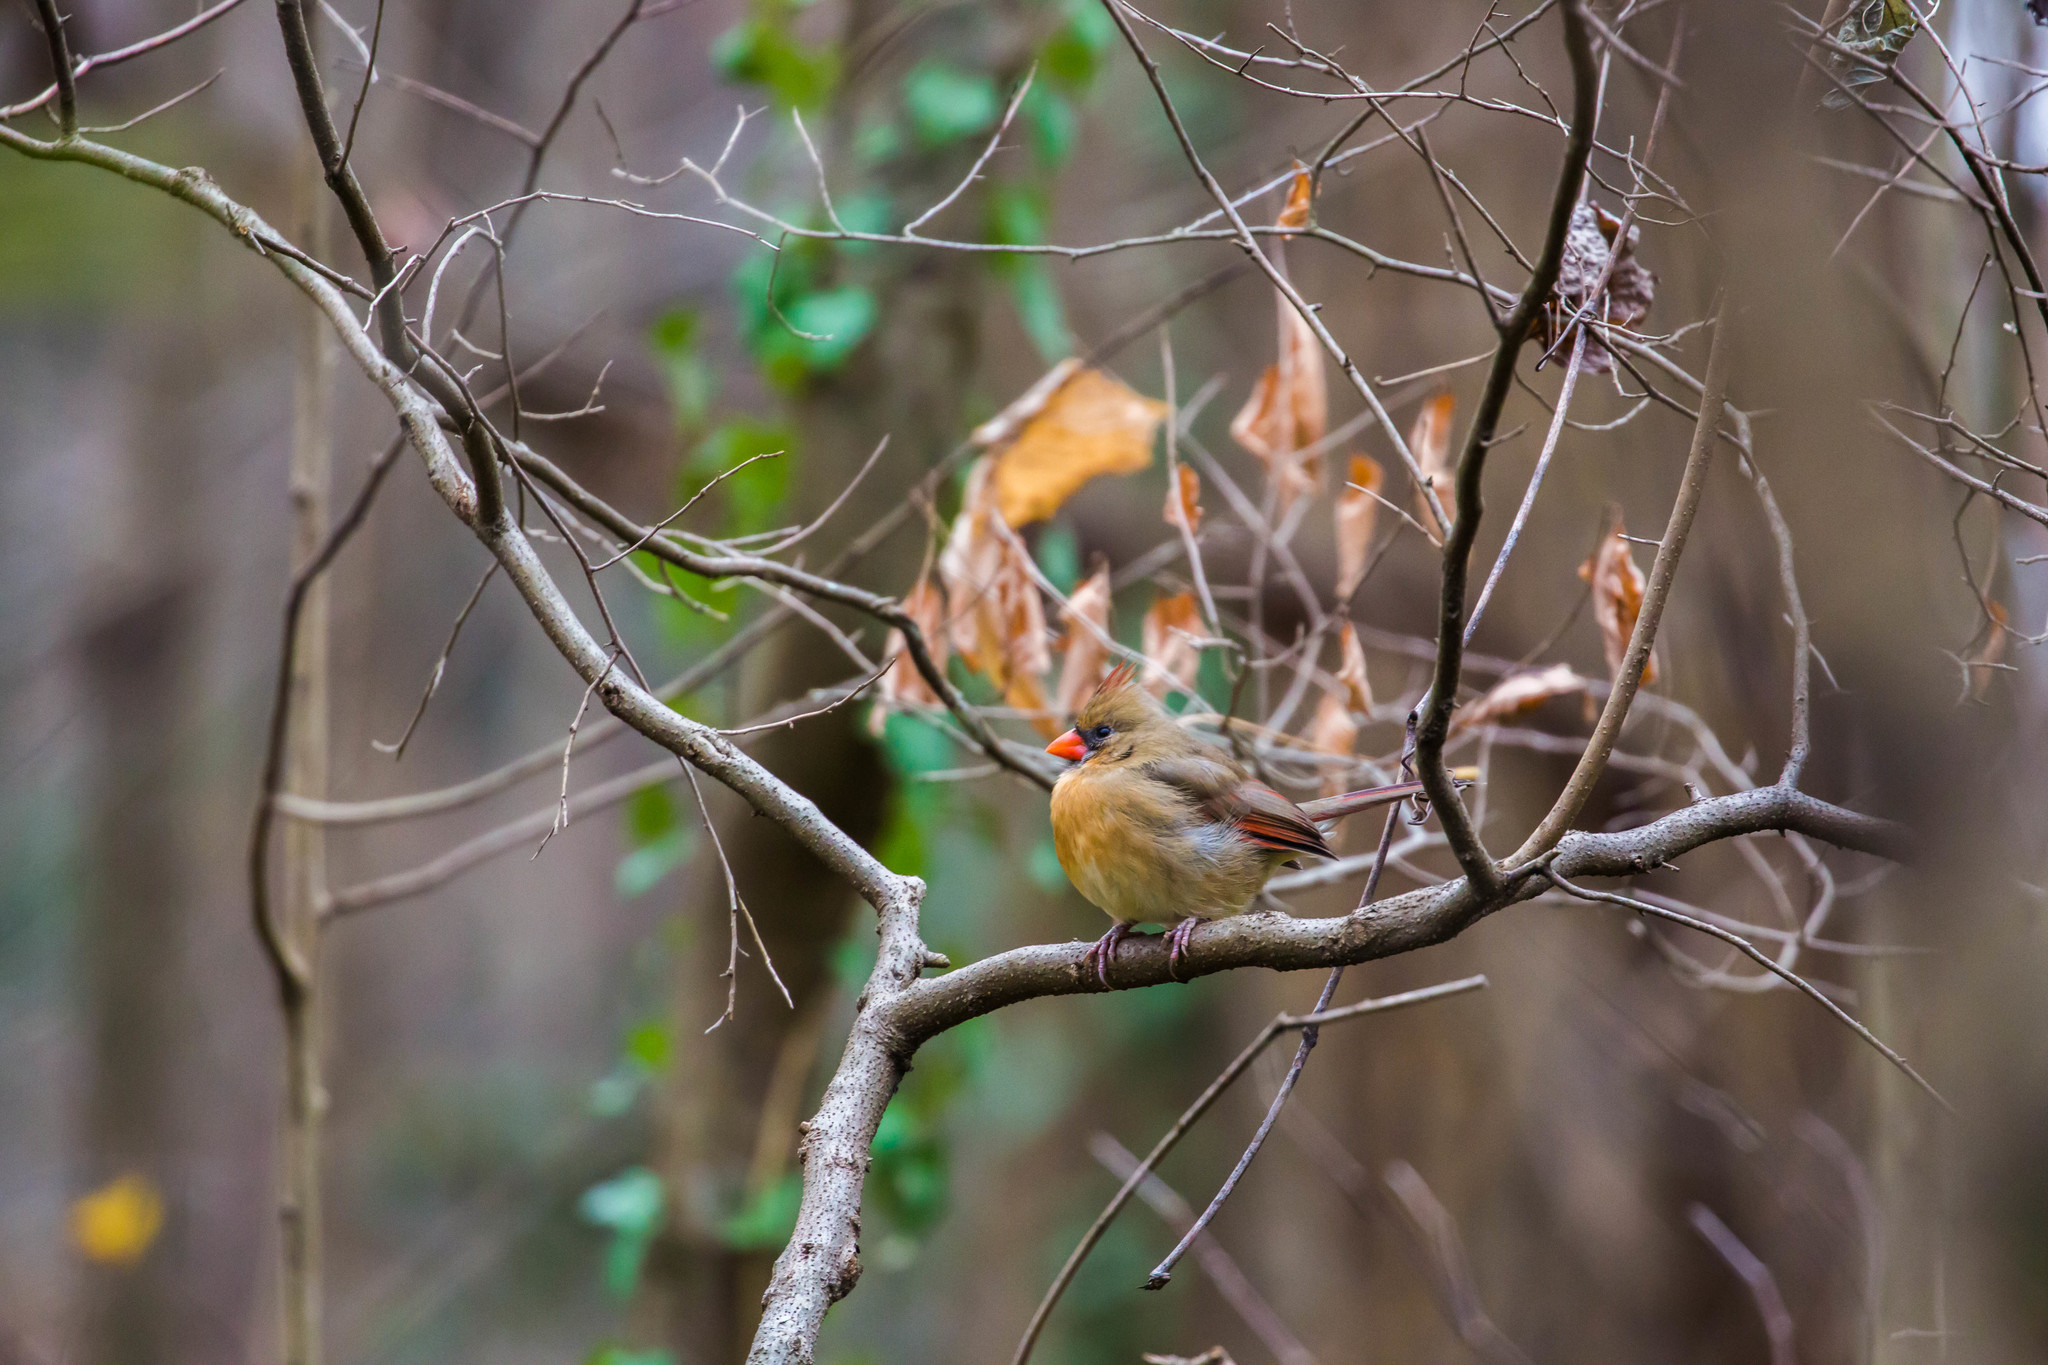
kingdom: Animalia
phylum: Chordata
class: Aves
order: Passeriformes
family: Cardinalidae
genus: Cardinalis
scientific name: Cardinalis cardinalis
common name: Northern cardinal
